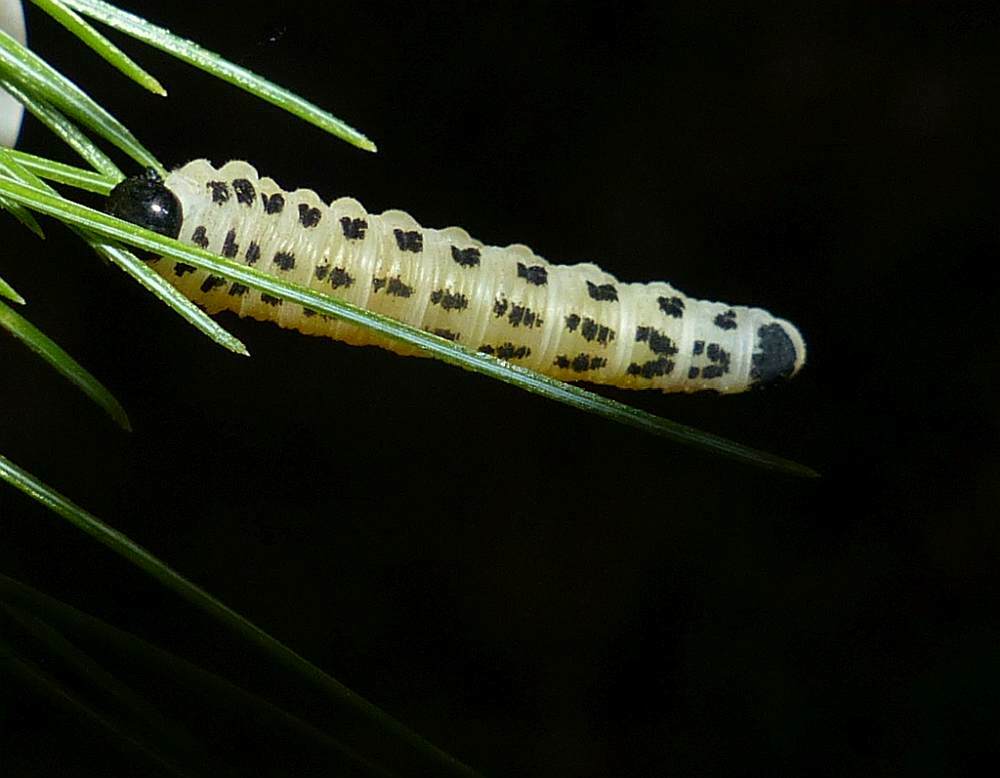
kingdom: Animalia
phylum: Arthropoda
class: Insecta
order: Hymenoptera
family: Diprionidae
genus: Neodiprion
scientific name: Neodiprion pinetum
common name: White pine sawfly
